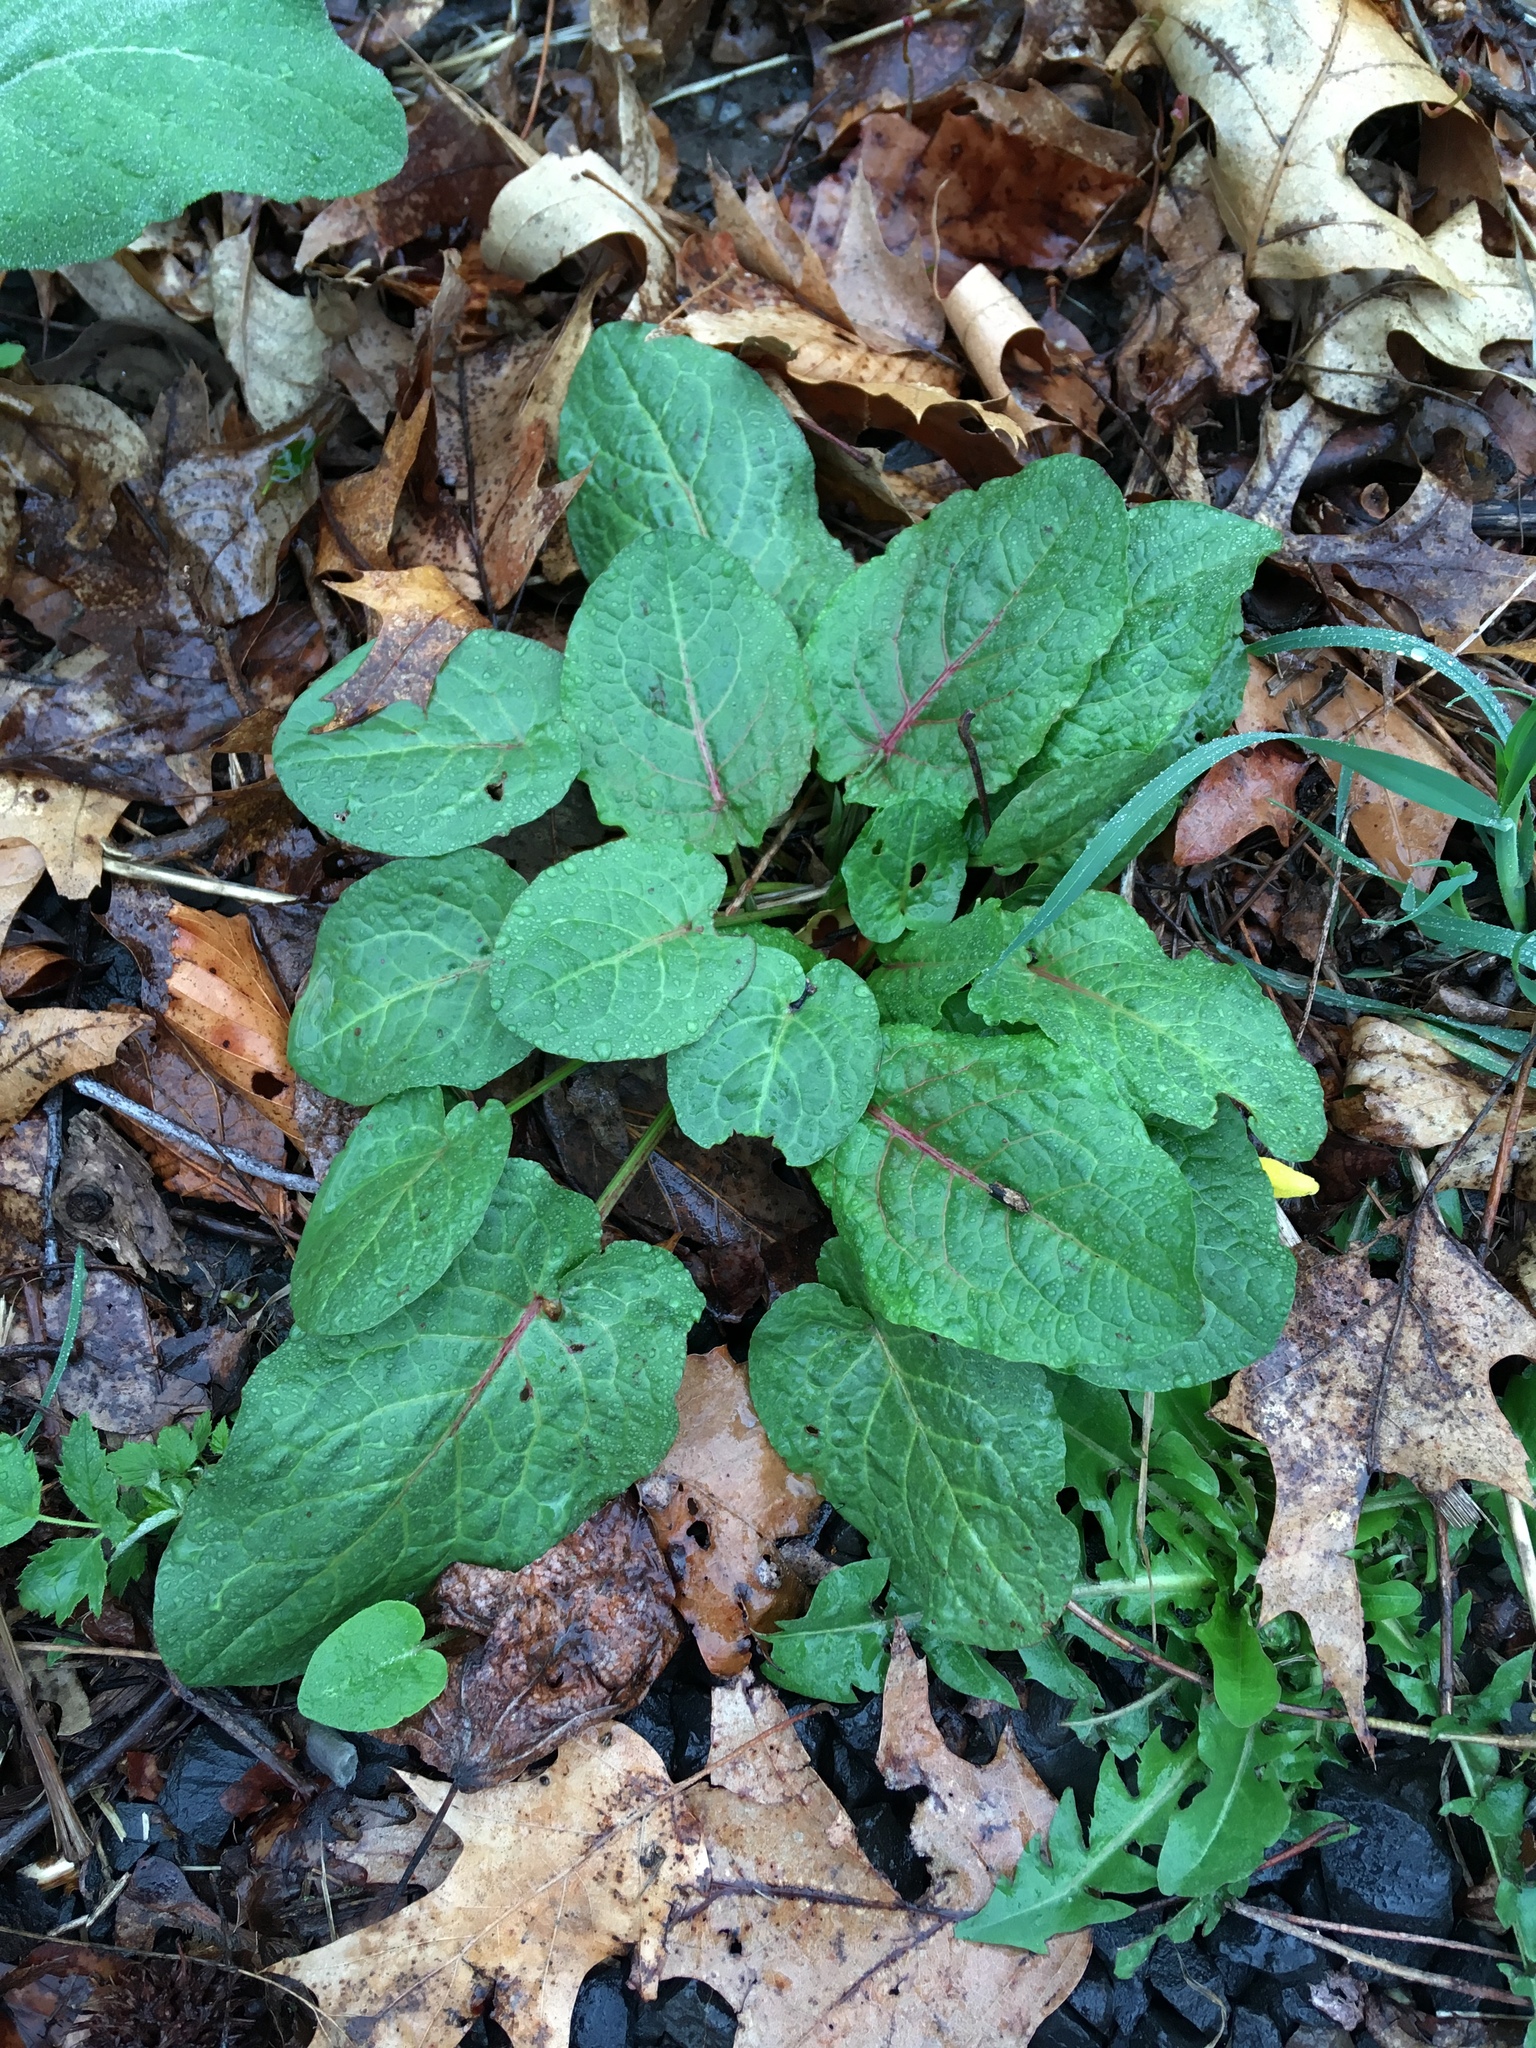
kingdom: Plantae
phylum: Tracheophyta
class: Magnoliopsida
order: Caryophyllales
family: Polygonaceae
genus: Rumex
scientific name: Rumex obtusifolius
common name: Bitter dock
